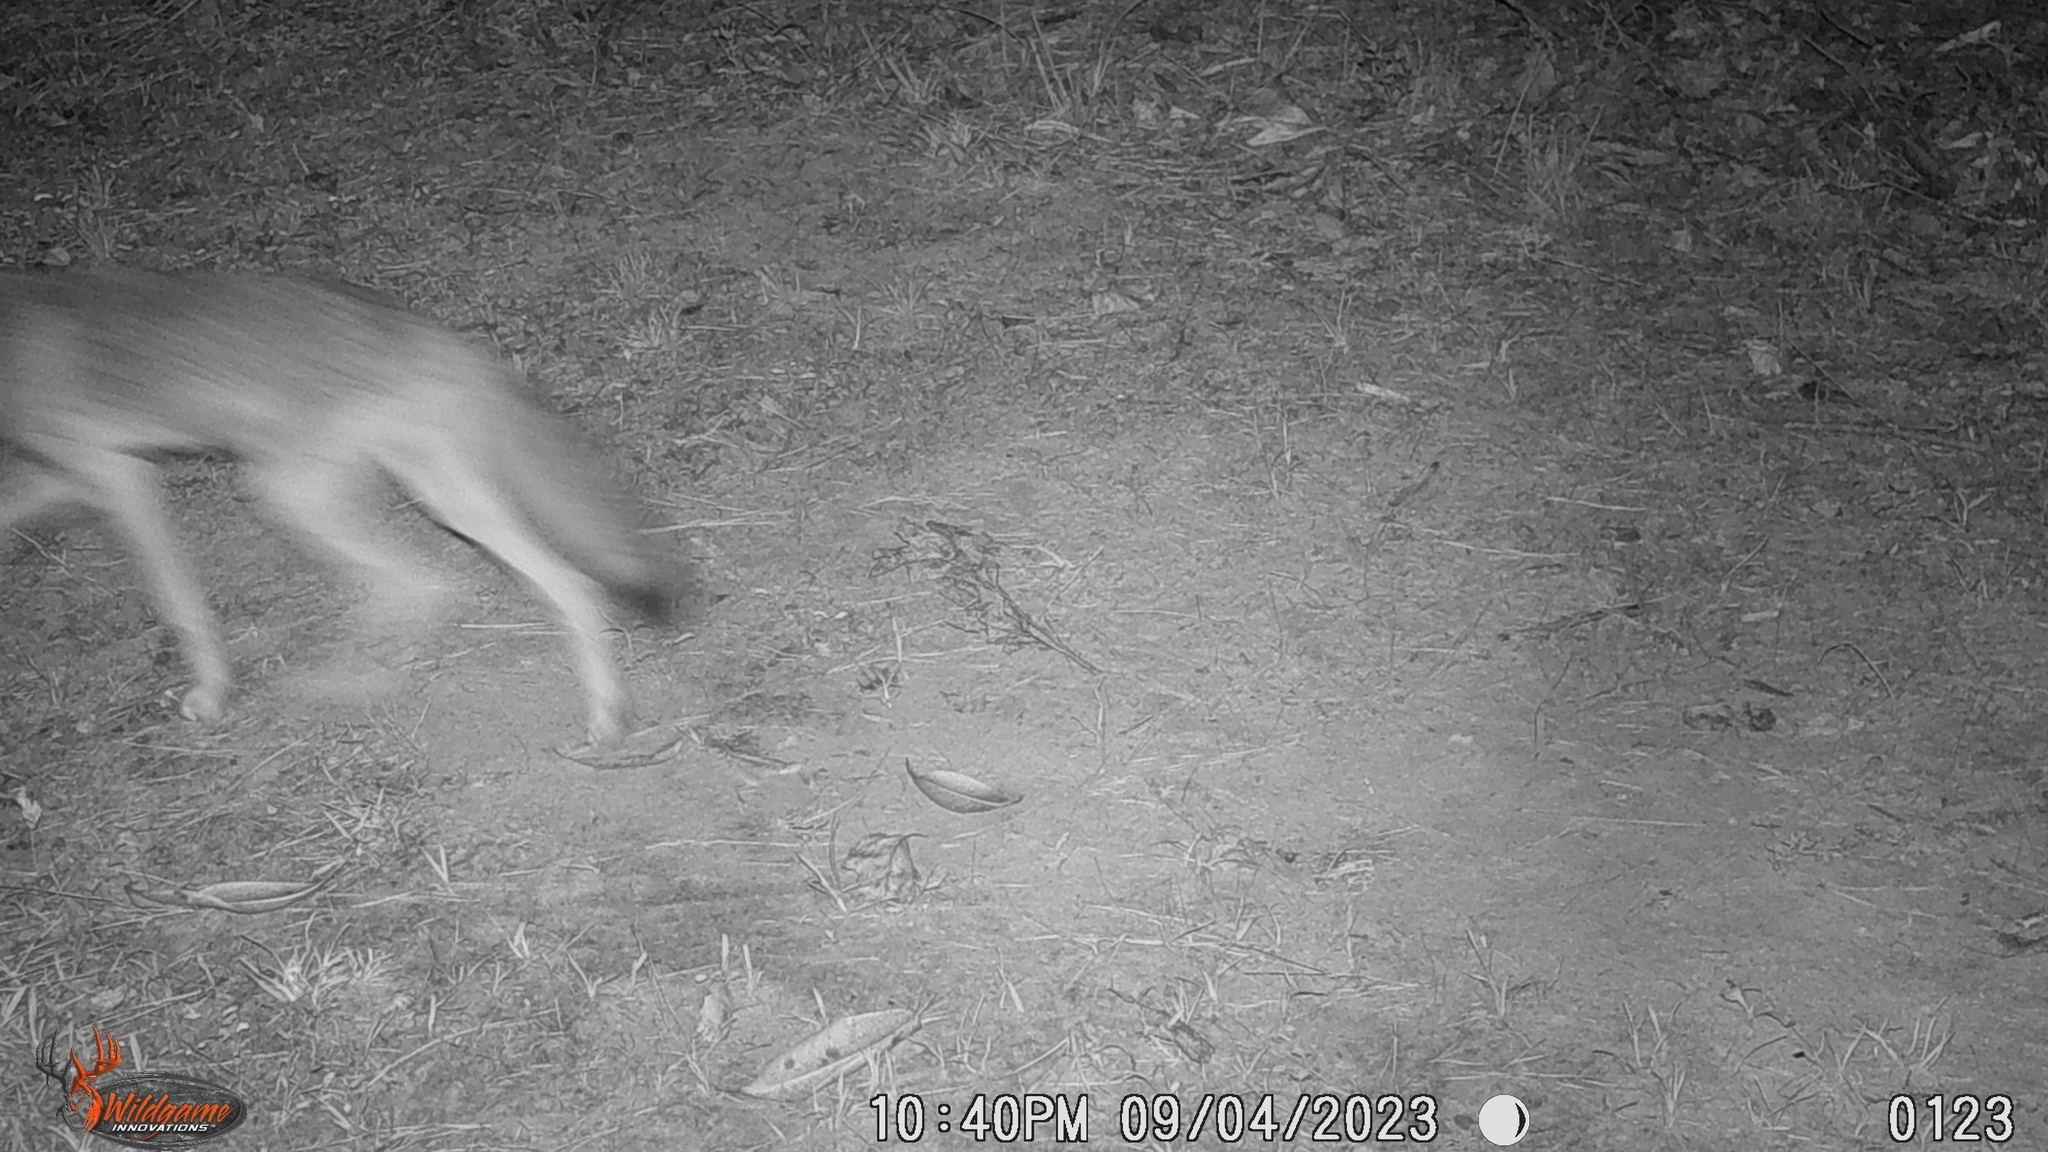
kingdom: Animalia
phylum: Chordata
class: Mammalia
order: Carnivora
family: Canidae
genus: Canis
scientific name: Canis latrans
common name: Coyote
